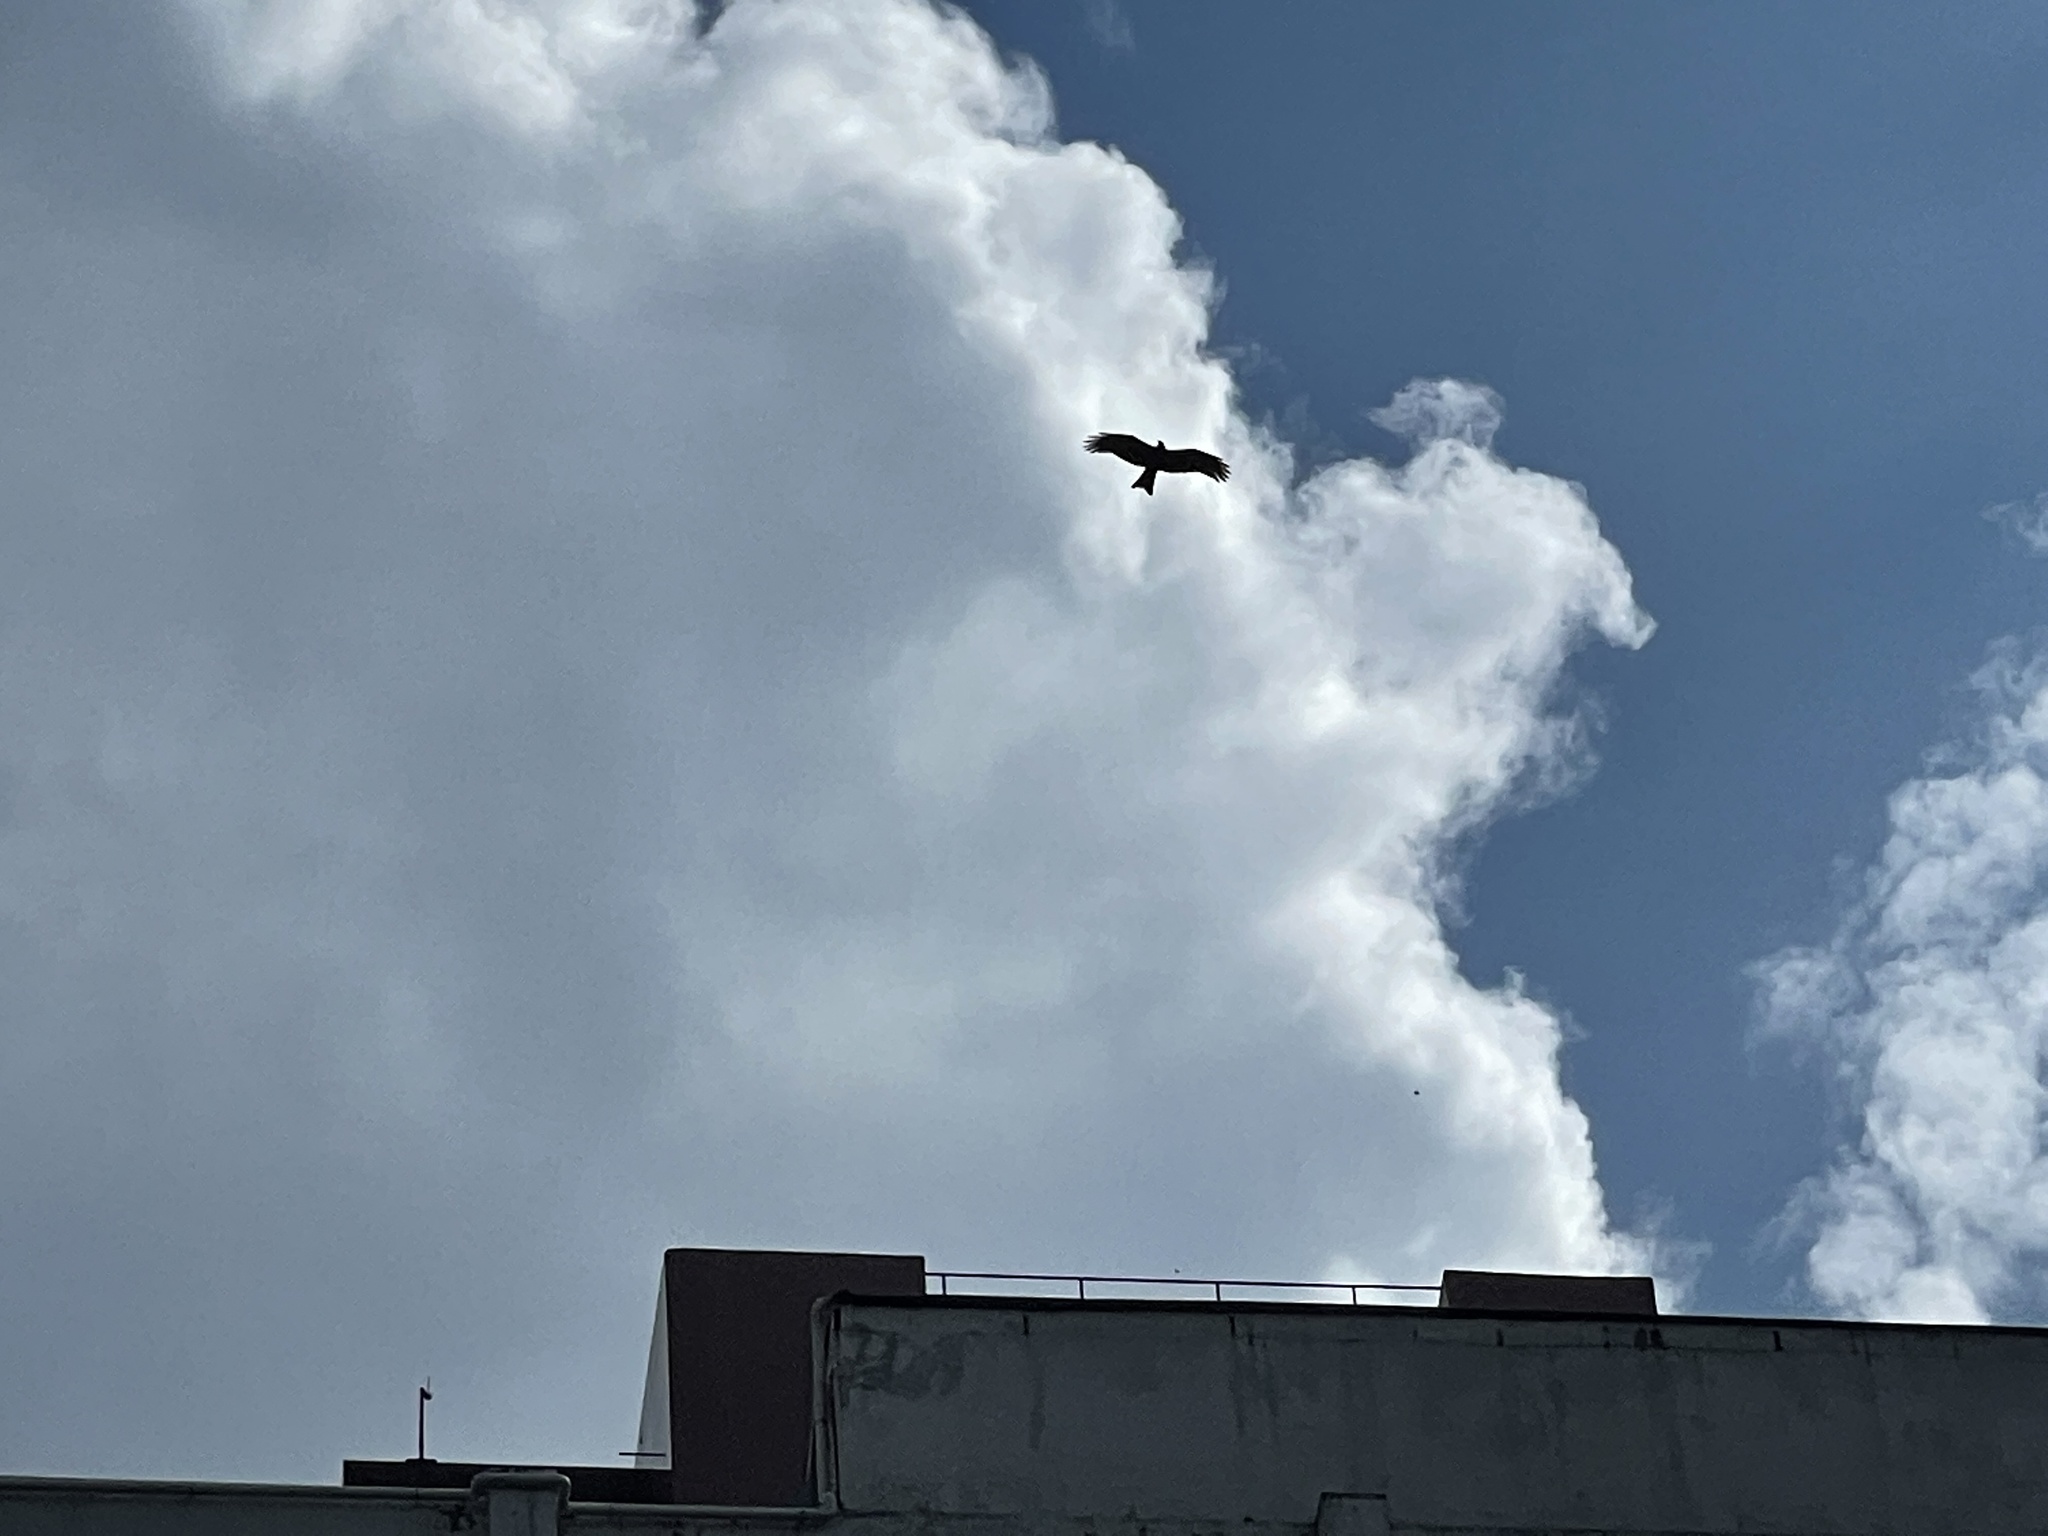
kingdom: Animalia
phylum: Chordata
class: Aves
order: Accipitriformes
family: Accipitridae
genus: Milvus
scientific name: Milvus migrans
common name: Black kite
